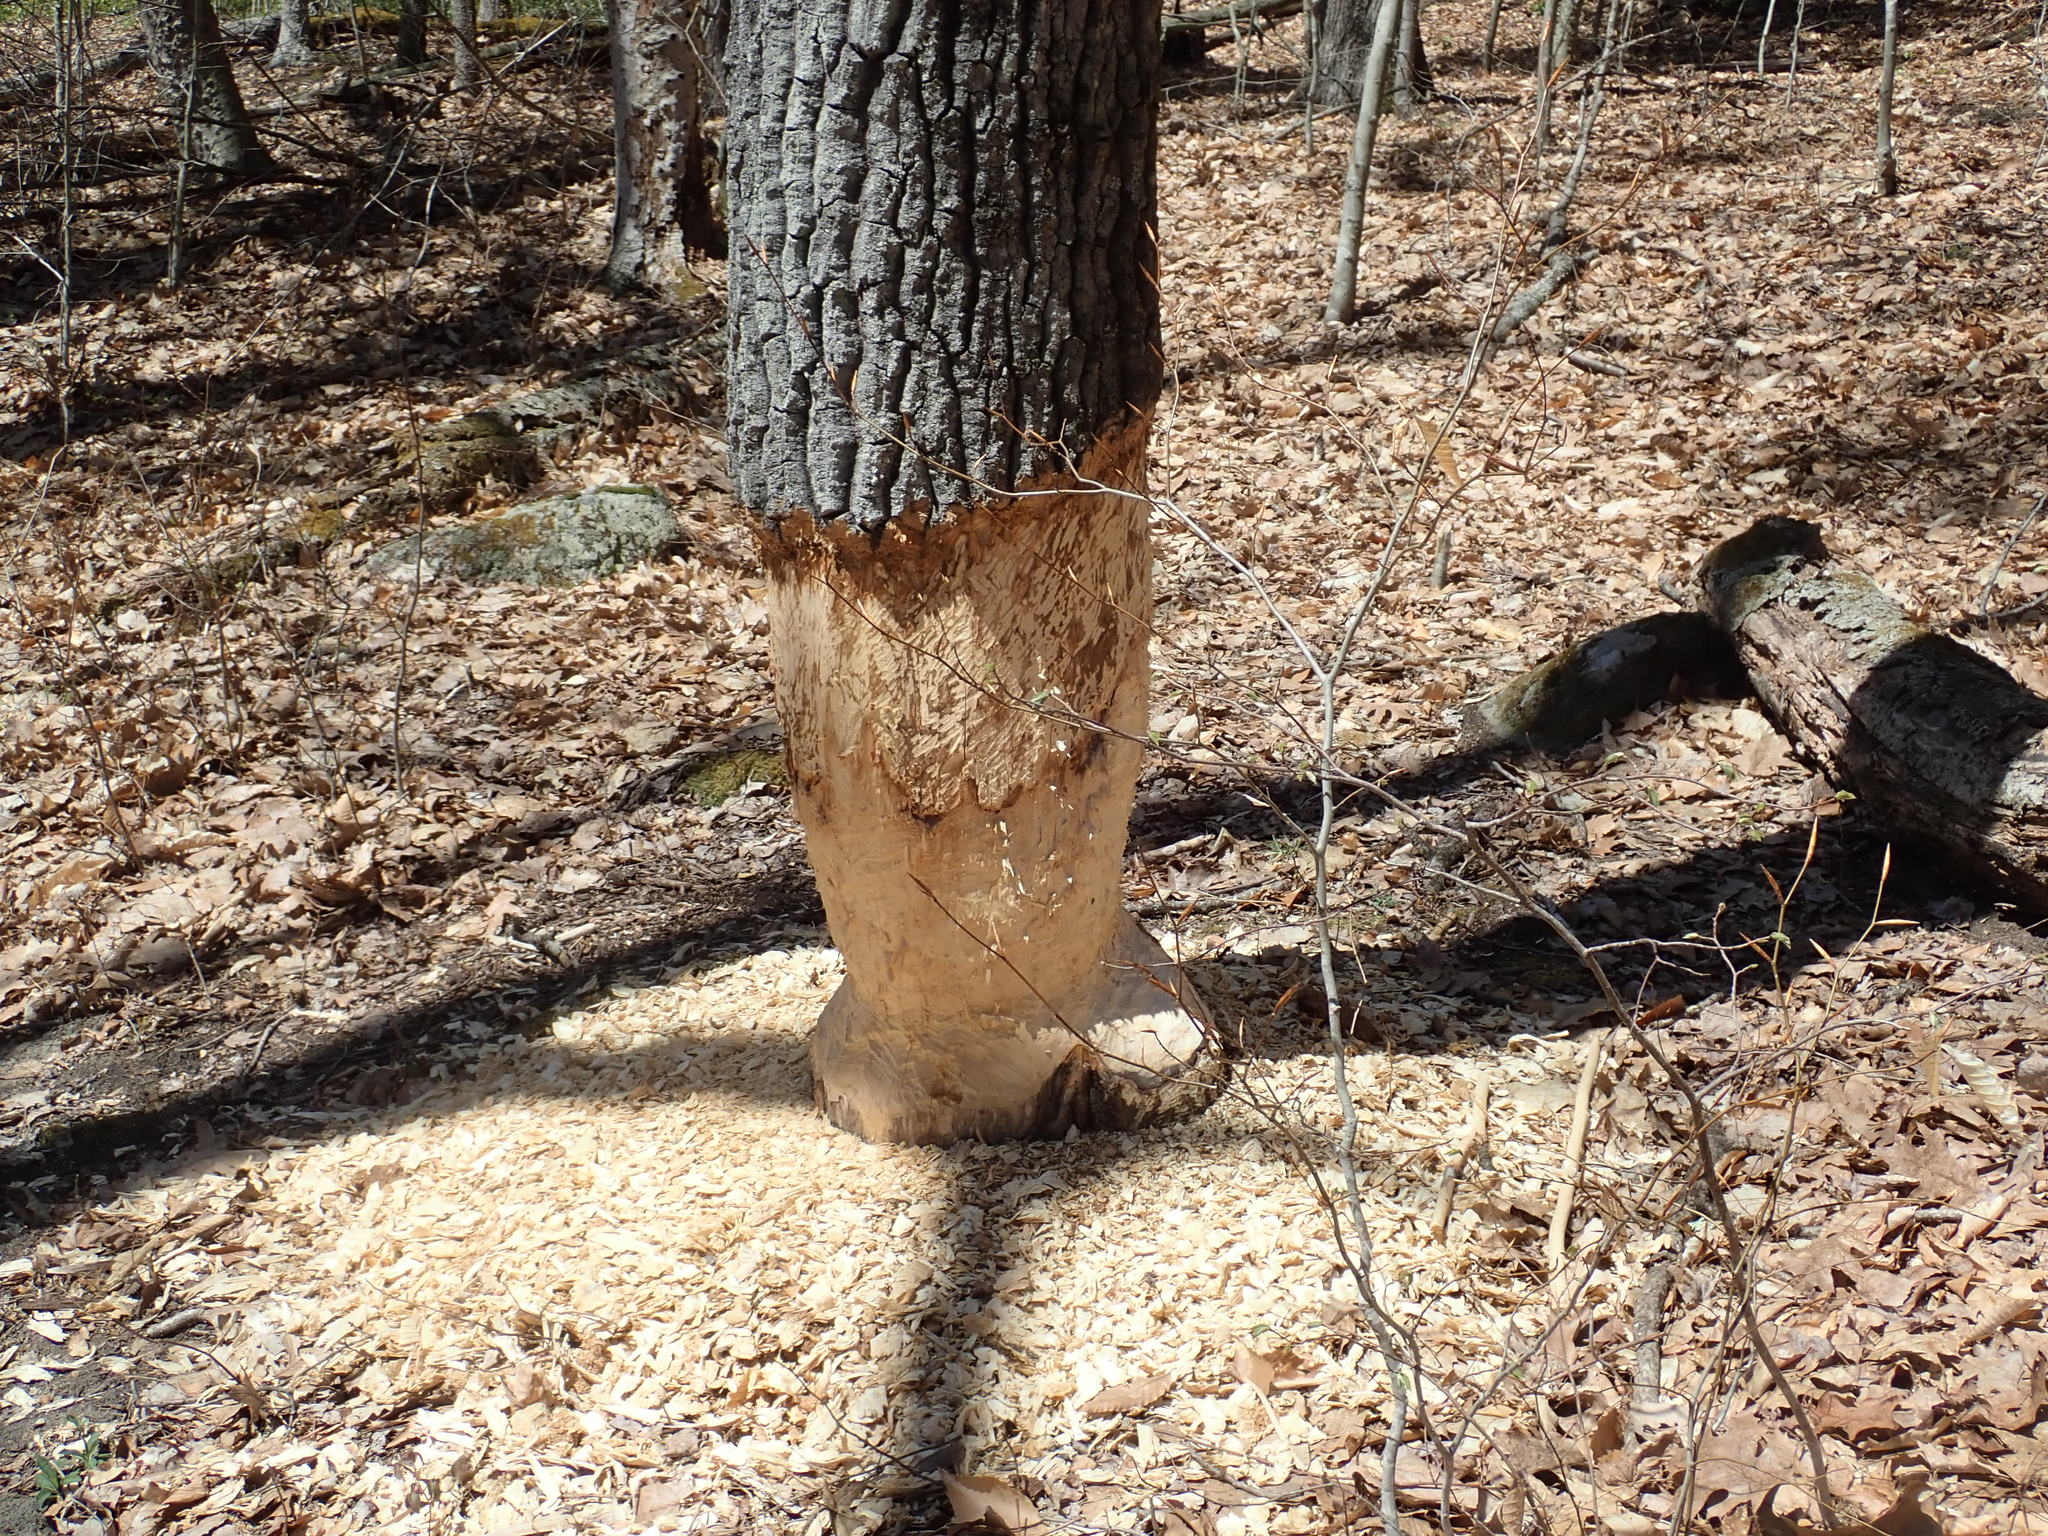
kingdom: Animalia
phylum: Chordata
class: Mammalia
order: Rodentia
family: Castoridae
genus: Castor
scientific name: Castor canadensis
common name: American beaver
